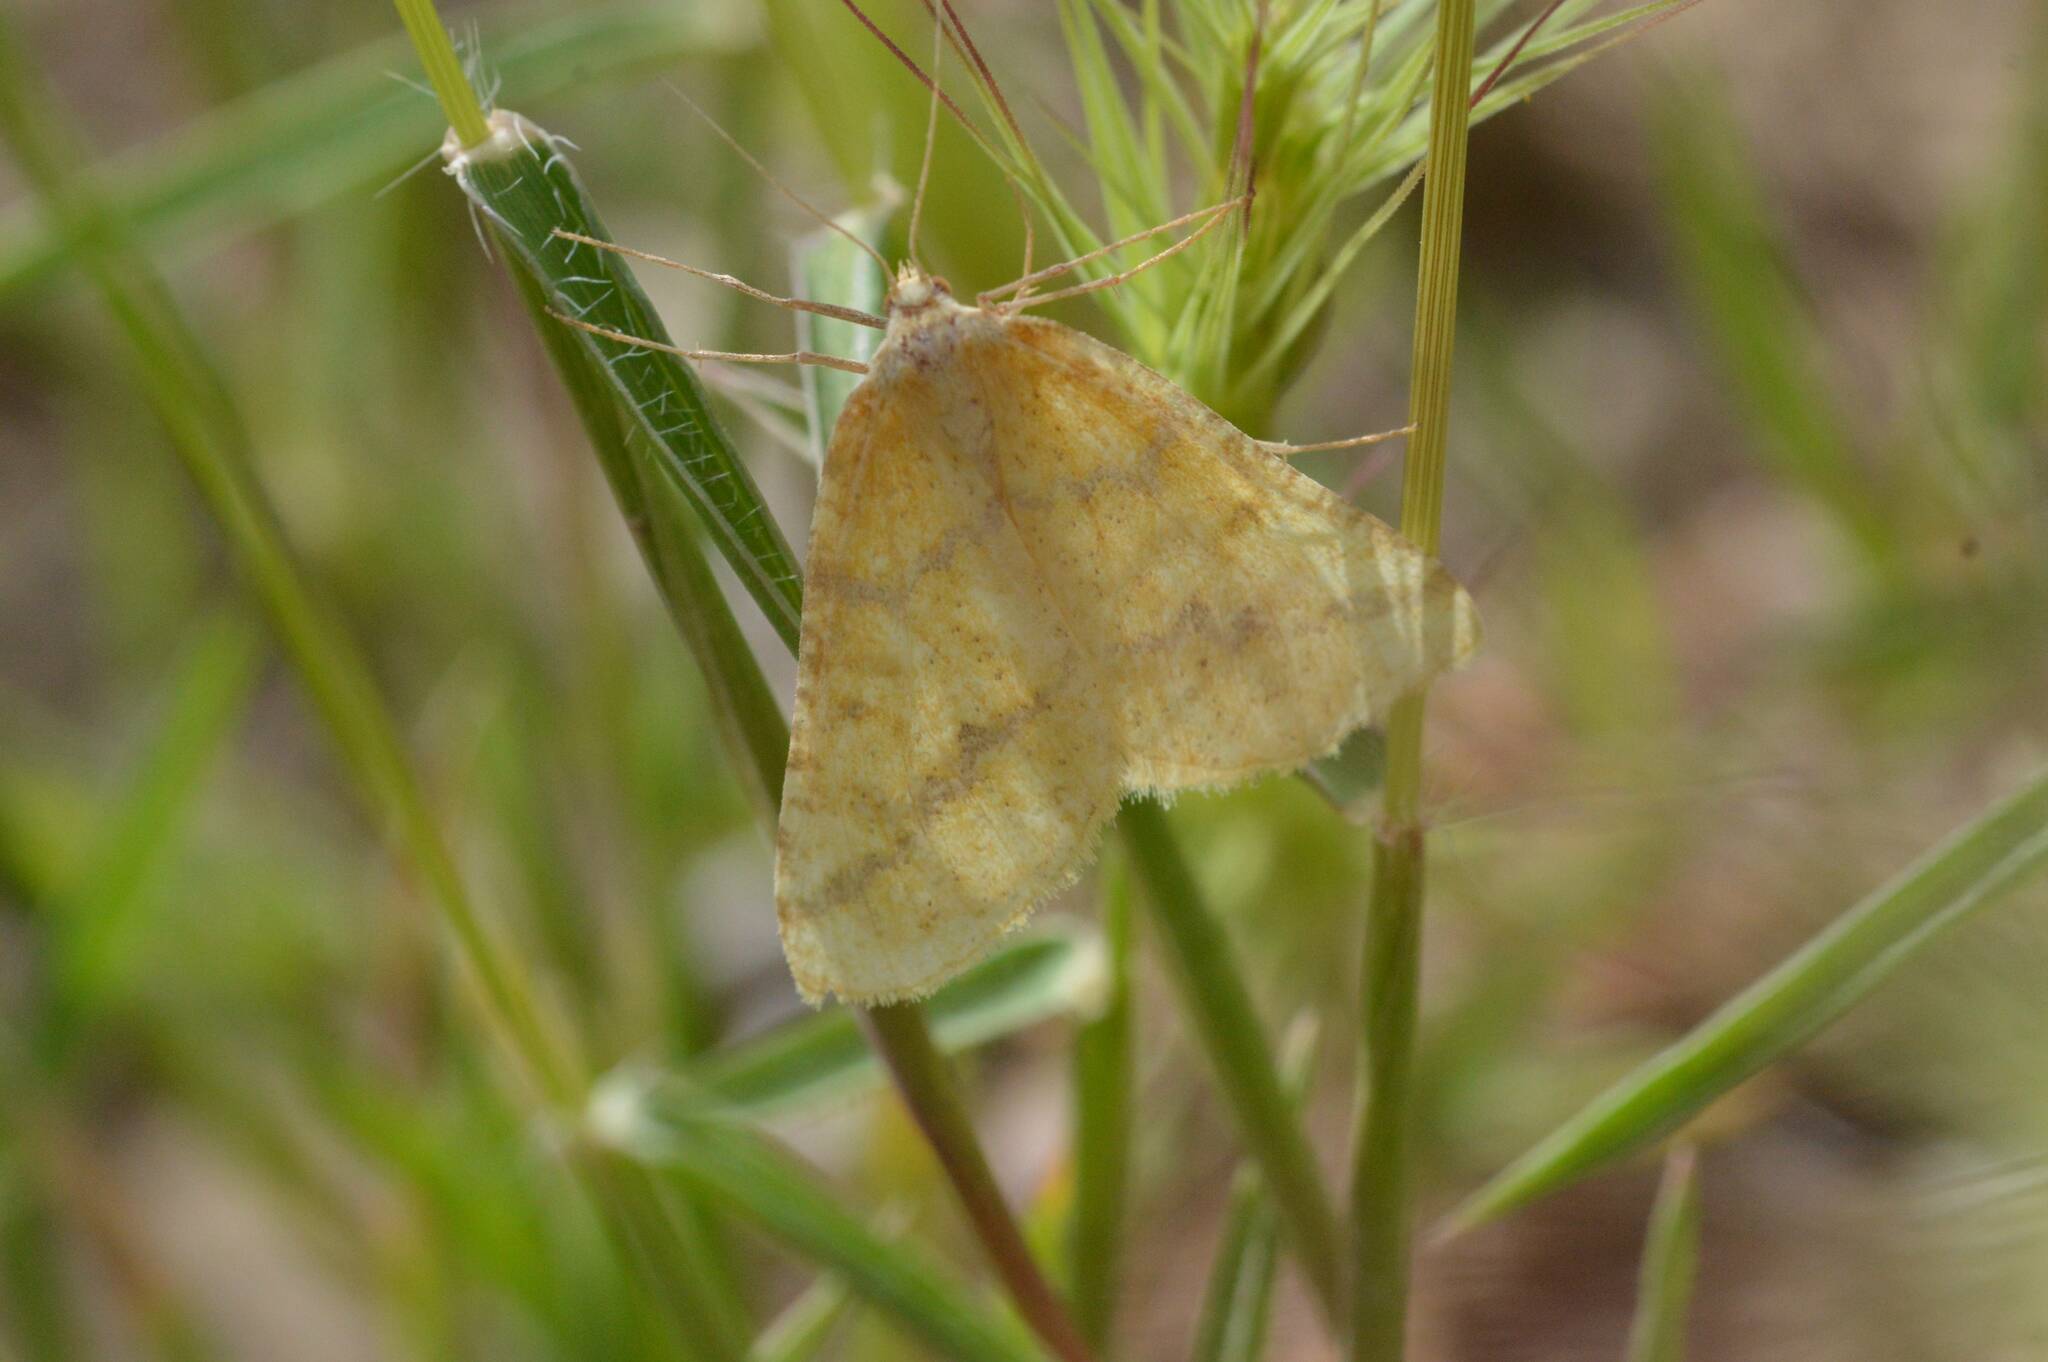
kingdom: Animalia
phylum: Arthropoda
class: Insecta
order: Lepidoptera
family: Geometridae
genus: Aspitates
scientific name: Aspitates ochrearia
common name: Yellow belle
